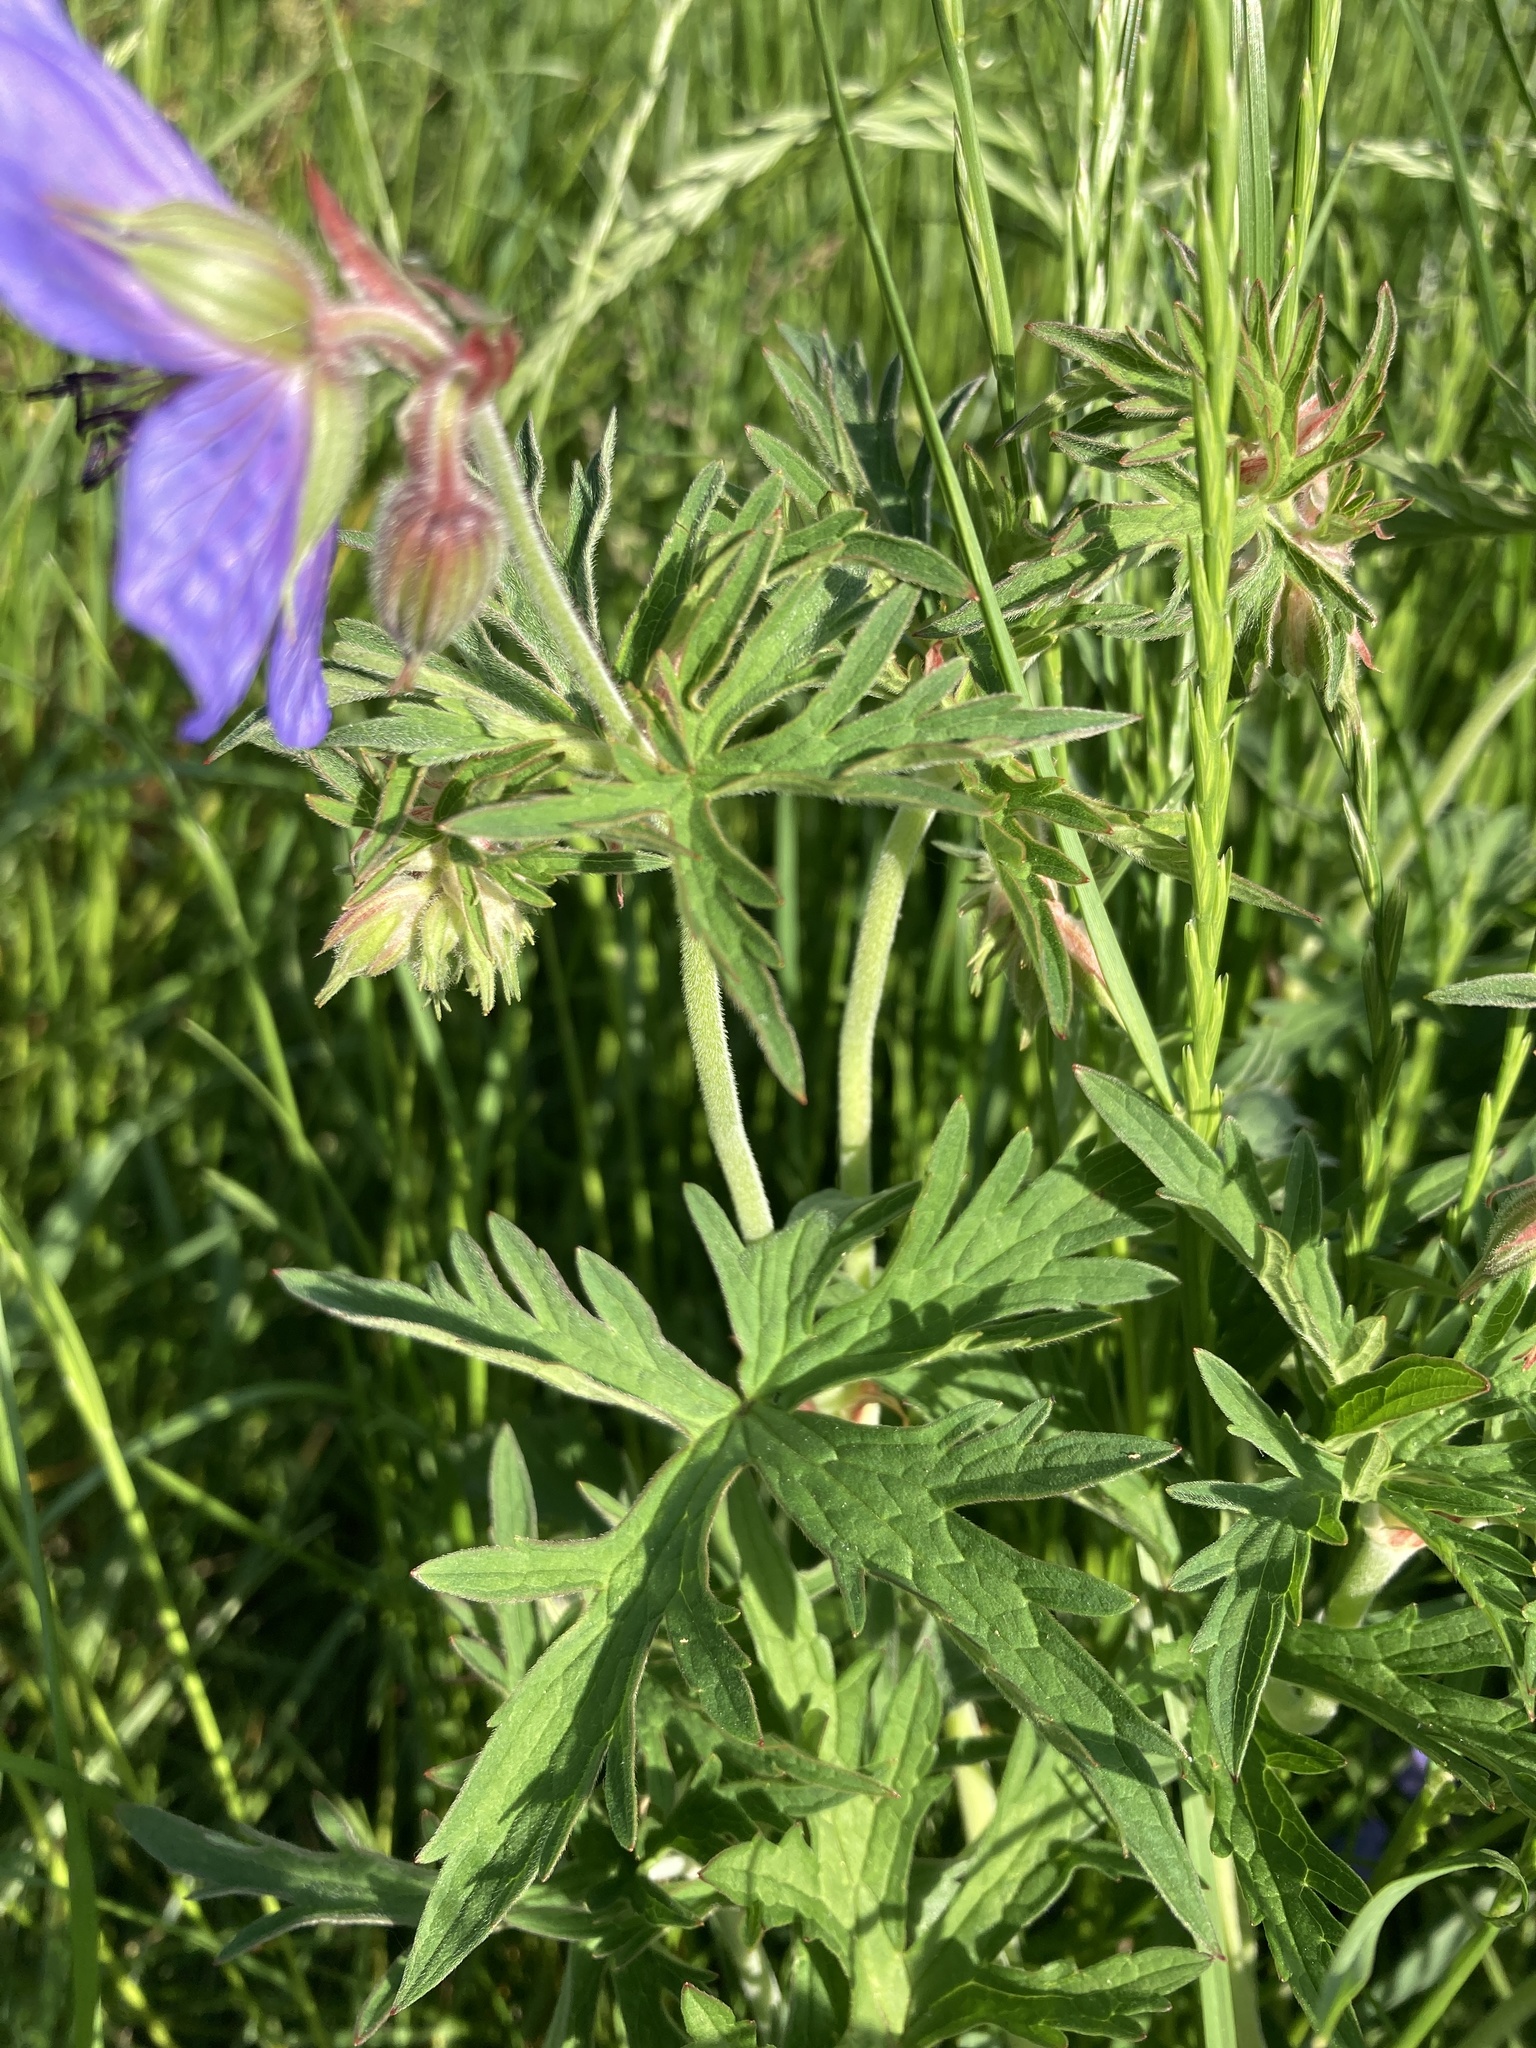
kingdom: Plantae
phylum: Tracheophyta
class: Magnoliopsida
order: Geraniales
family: Geraniaceae
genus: Geranium
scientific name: Geranium pratense
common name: Meadow crane's-bill
